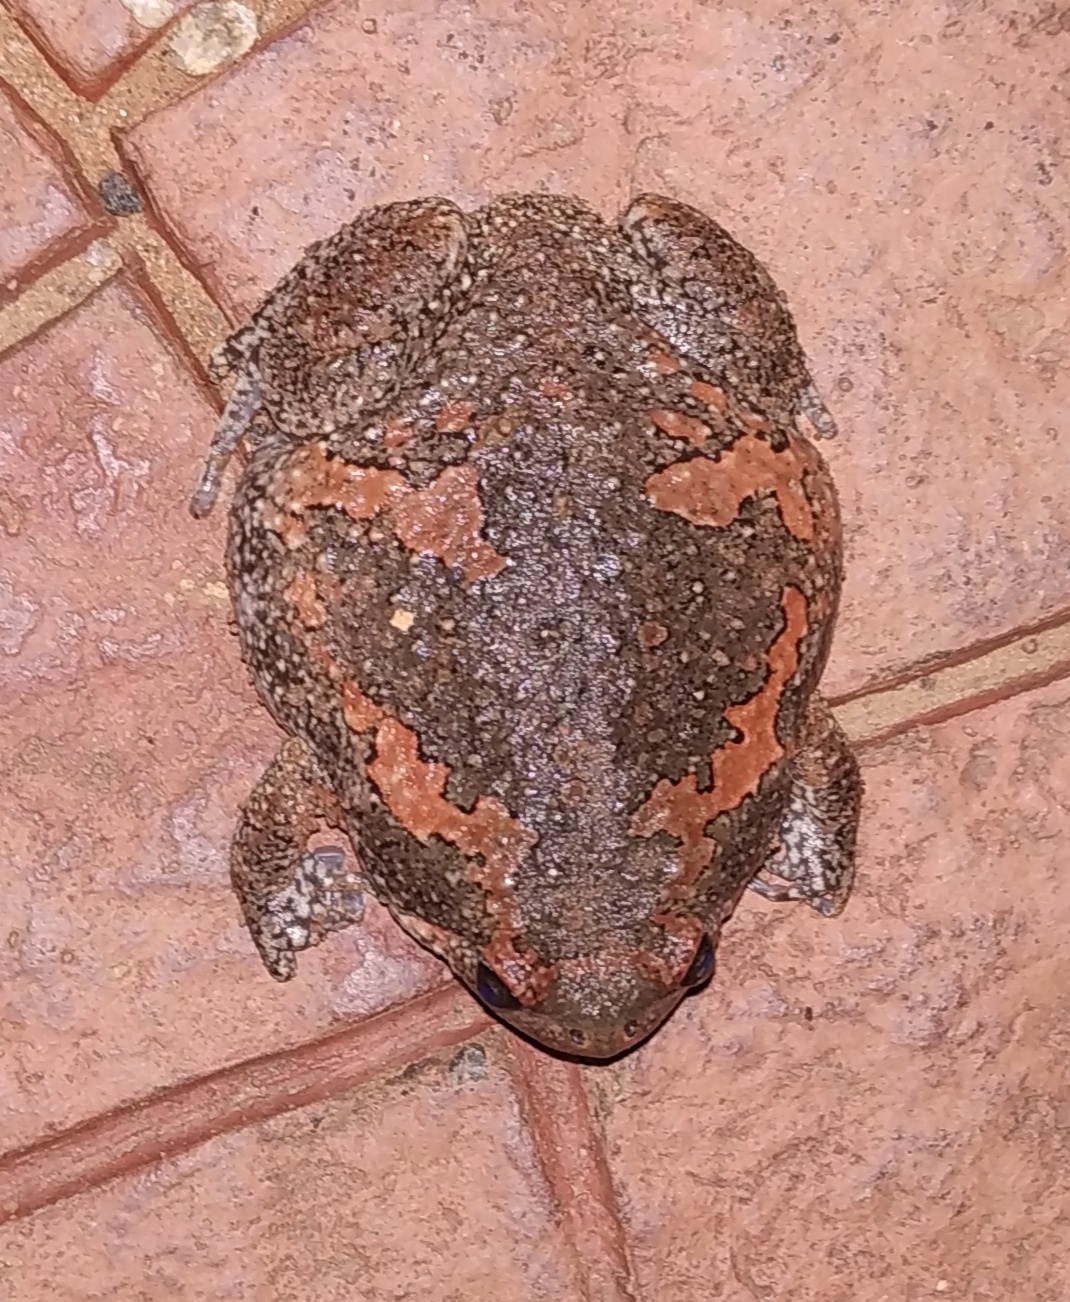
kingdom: Animalia
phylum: Chordata
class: Amphibia
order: Anura
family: Microhylidae
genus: Uperodon
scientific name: Uperodon taprobanicus
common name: Ceylon kaloula
